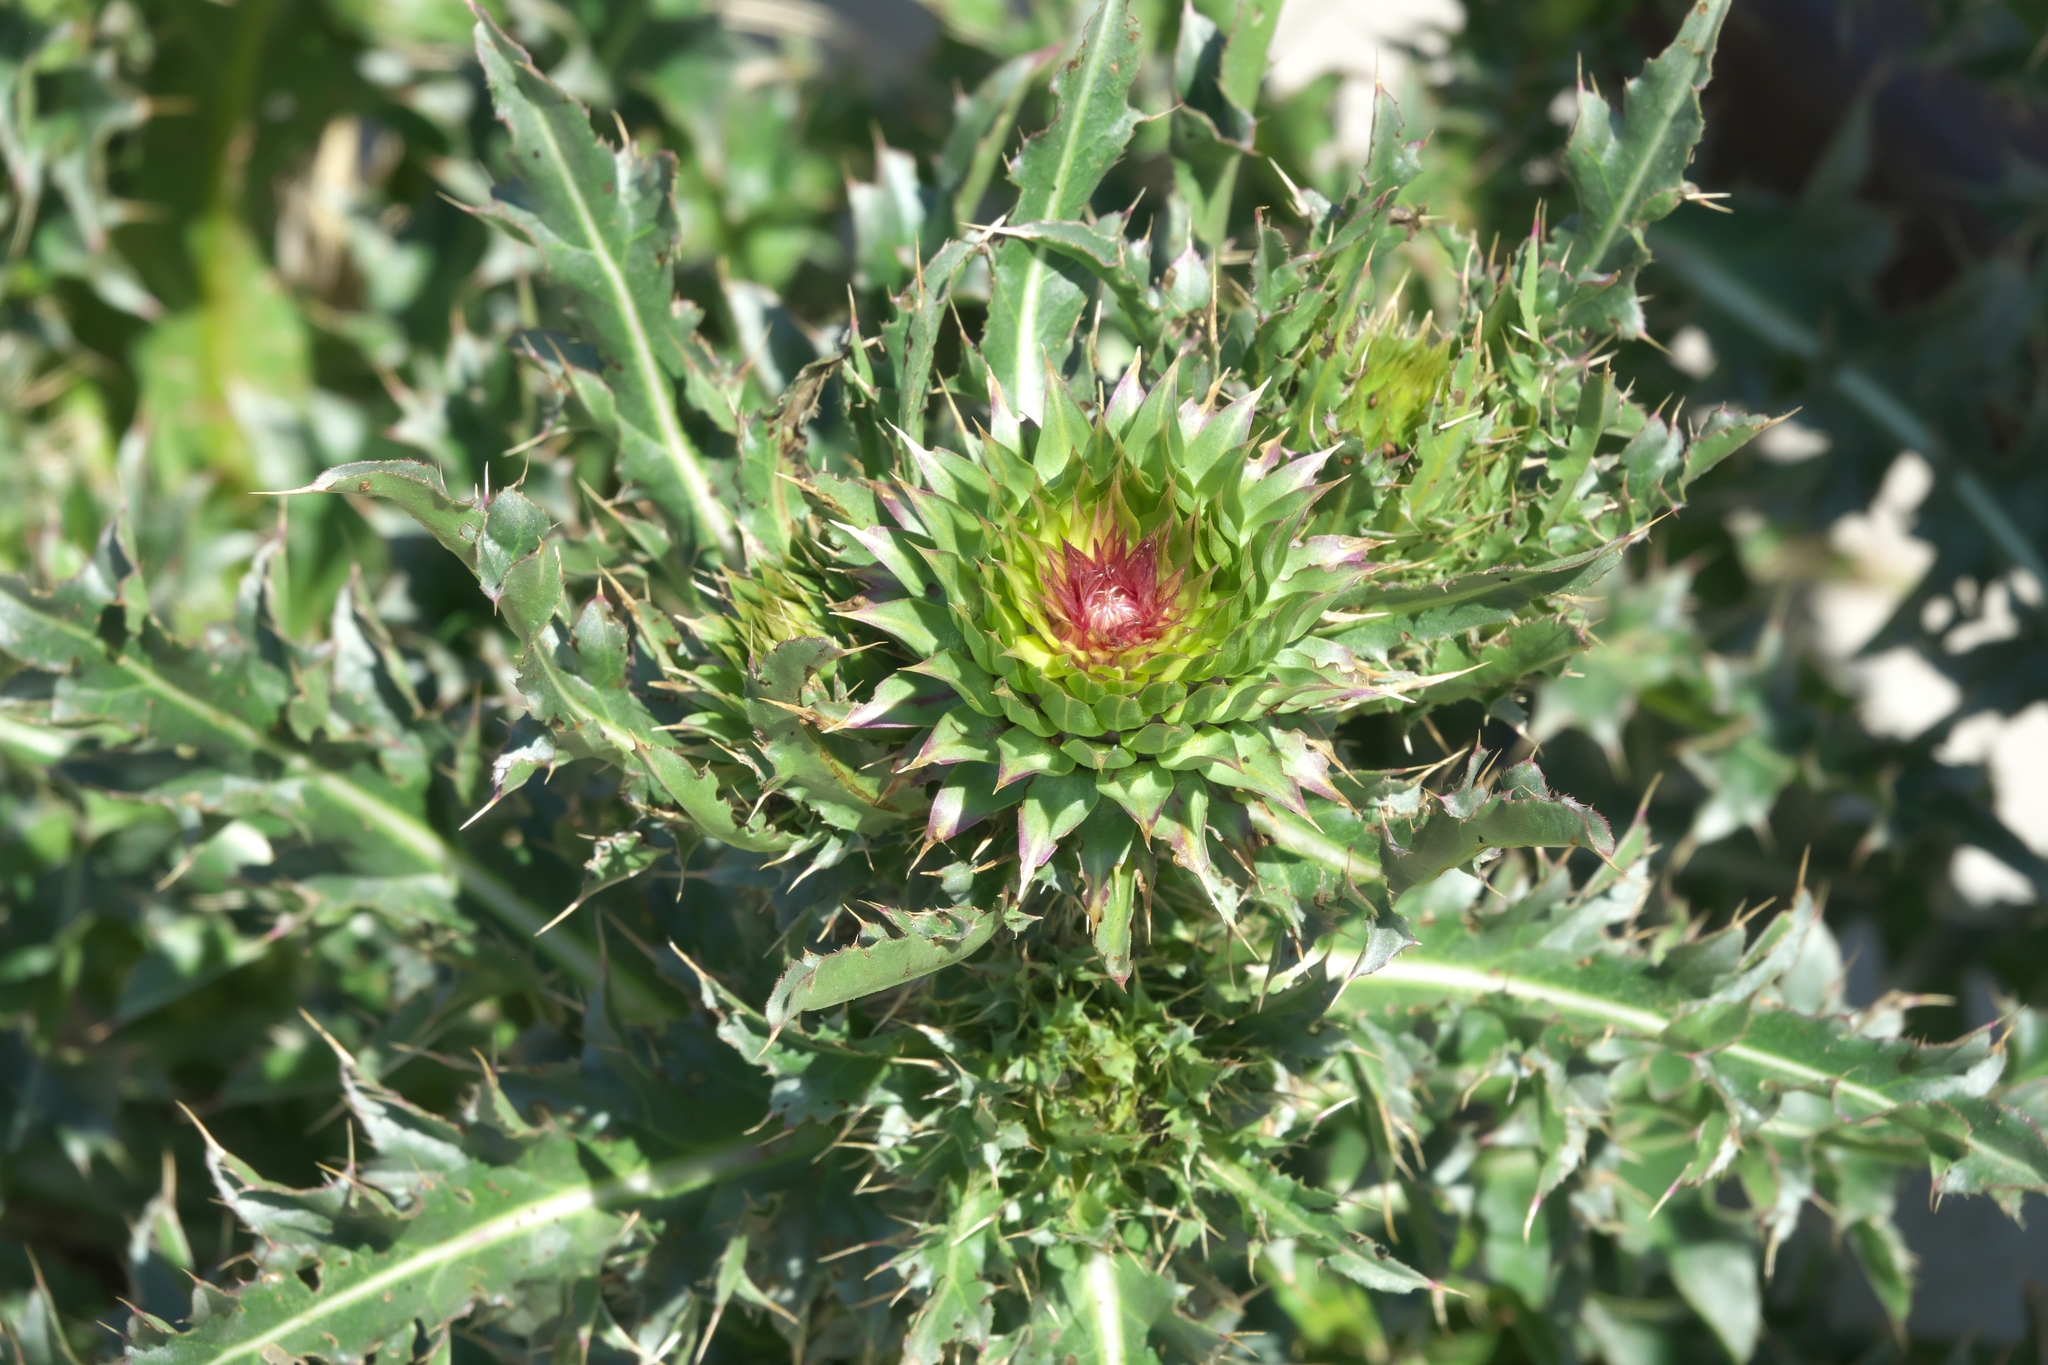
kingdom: Plantae
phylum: Tracheophyta
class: Magnoliopsida
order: Asterales
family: Asteraceae
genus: Carduus
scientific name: Carduus nutans
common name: Musk thistle
